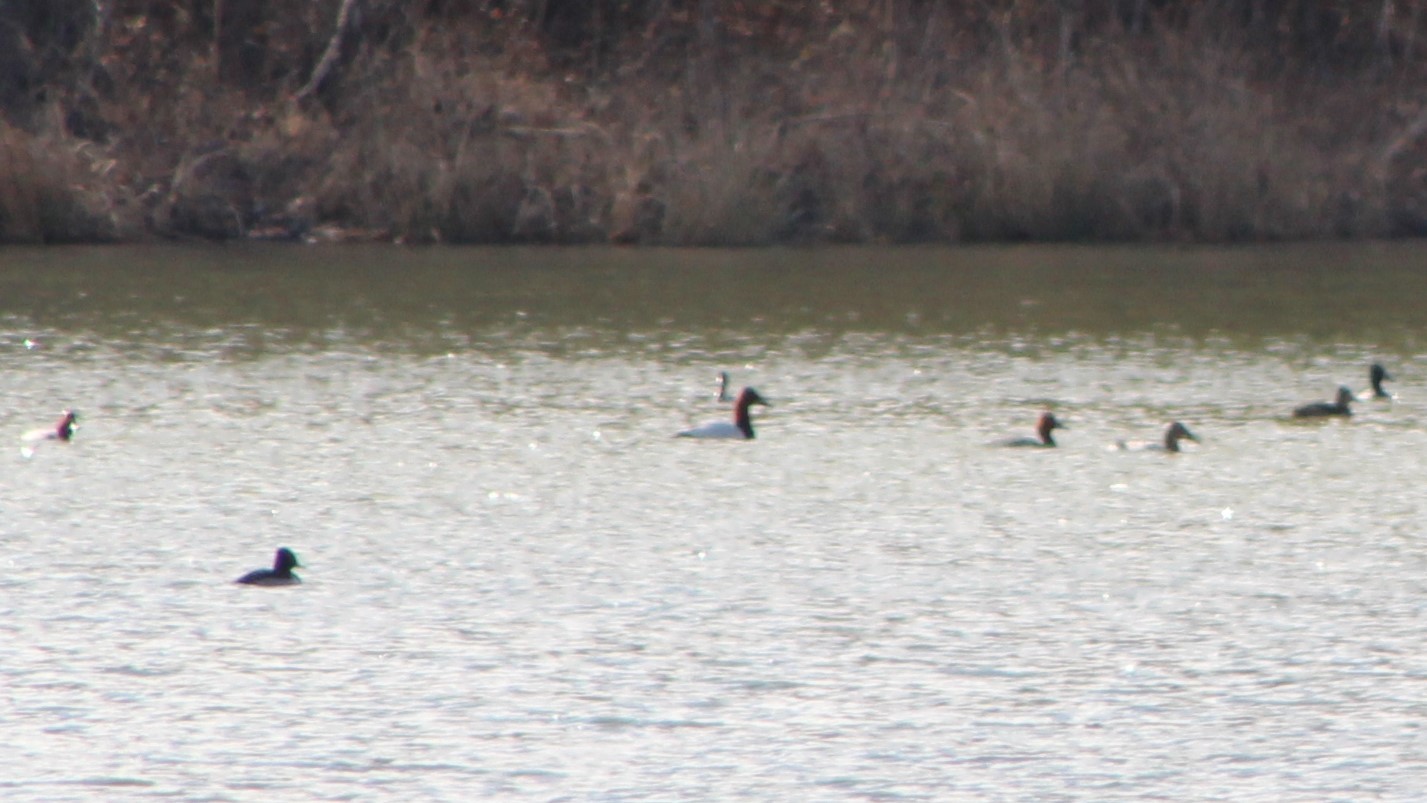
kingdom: Animalia
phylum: Chordata
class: Aves
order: Anseriformes
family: Anatidae
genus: Aythya
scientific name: Aythya valisineria
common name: Canvasback
